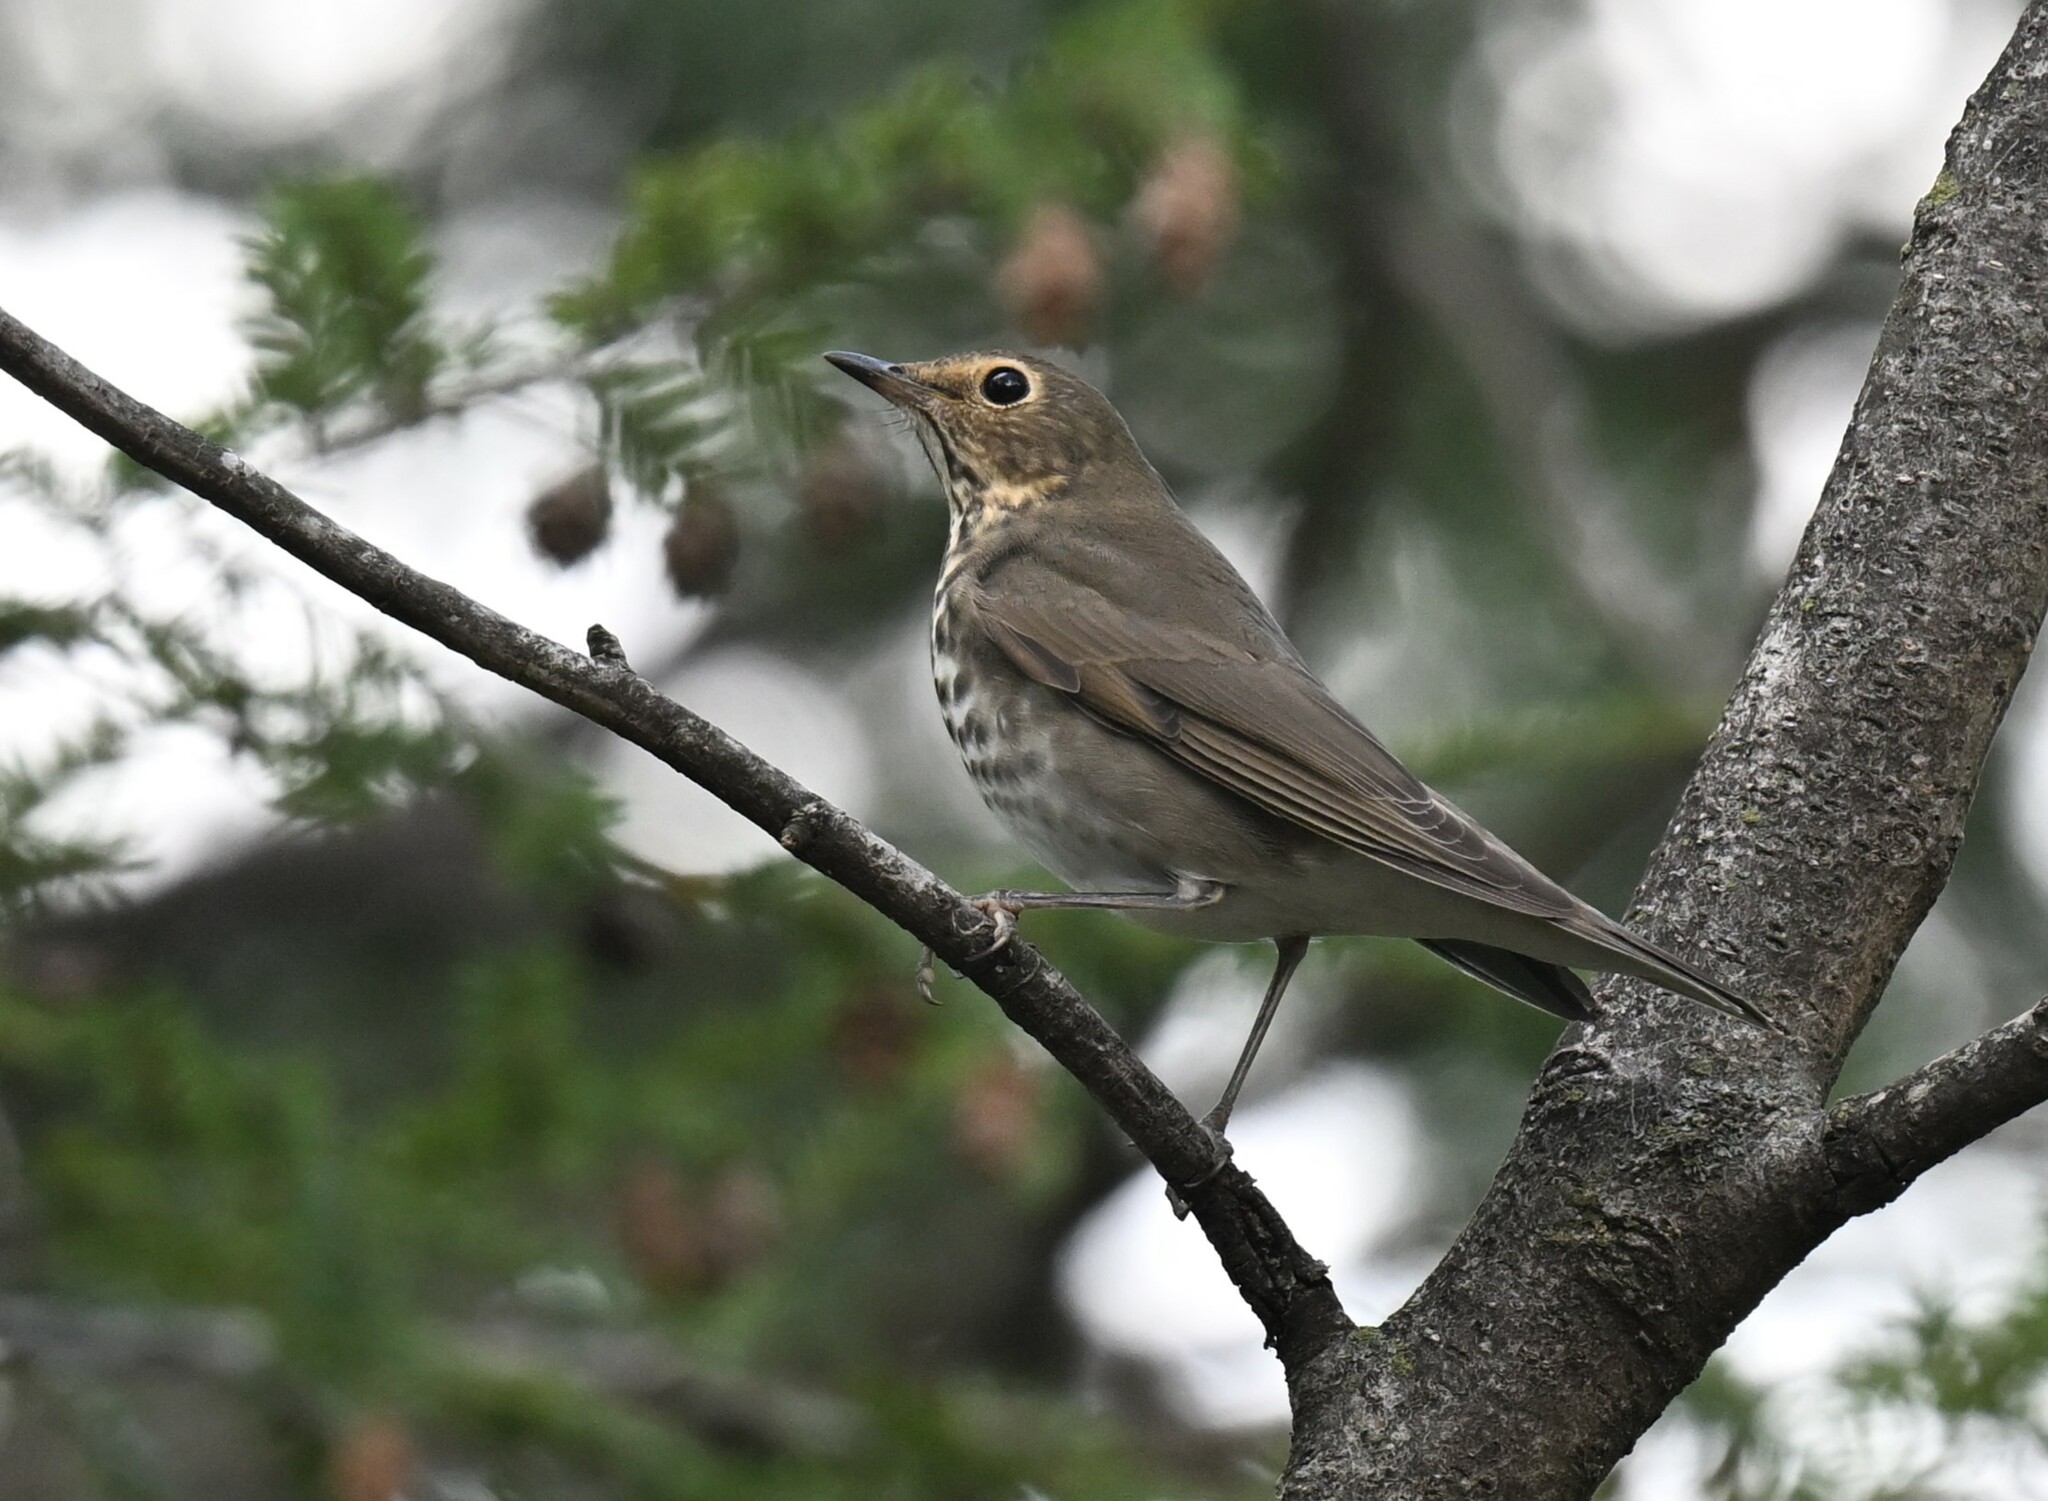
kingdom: Animalia
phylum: Chordata
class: Aves
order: Passeriformes
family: Turdidae
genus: Catharus
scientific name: Catharus ustulatus
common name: Swainson's thrush
